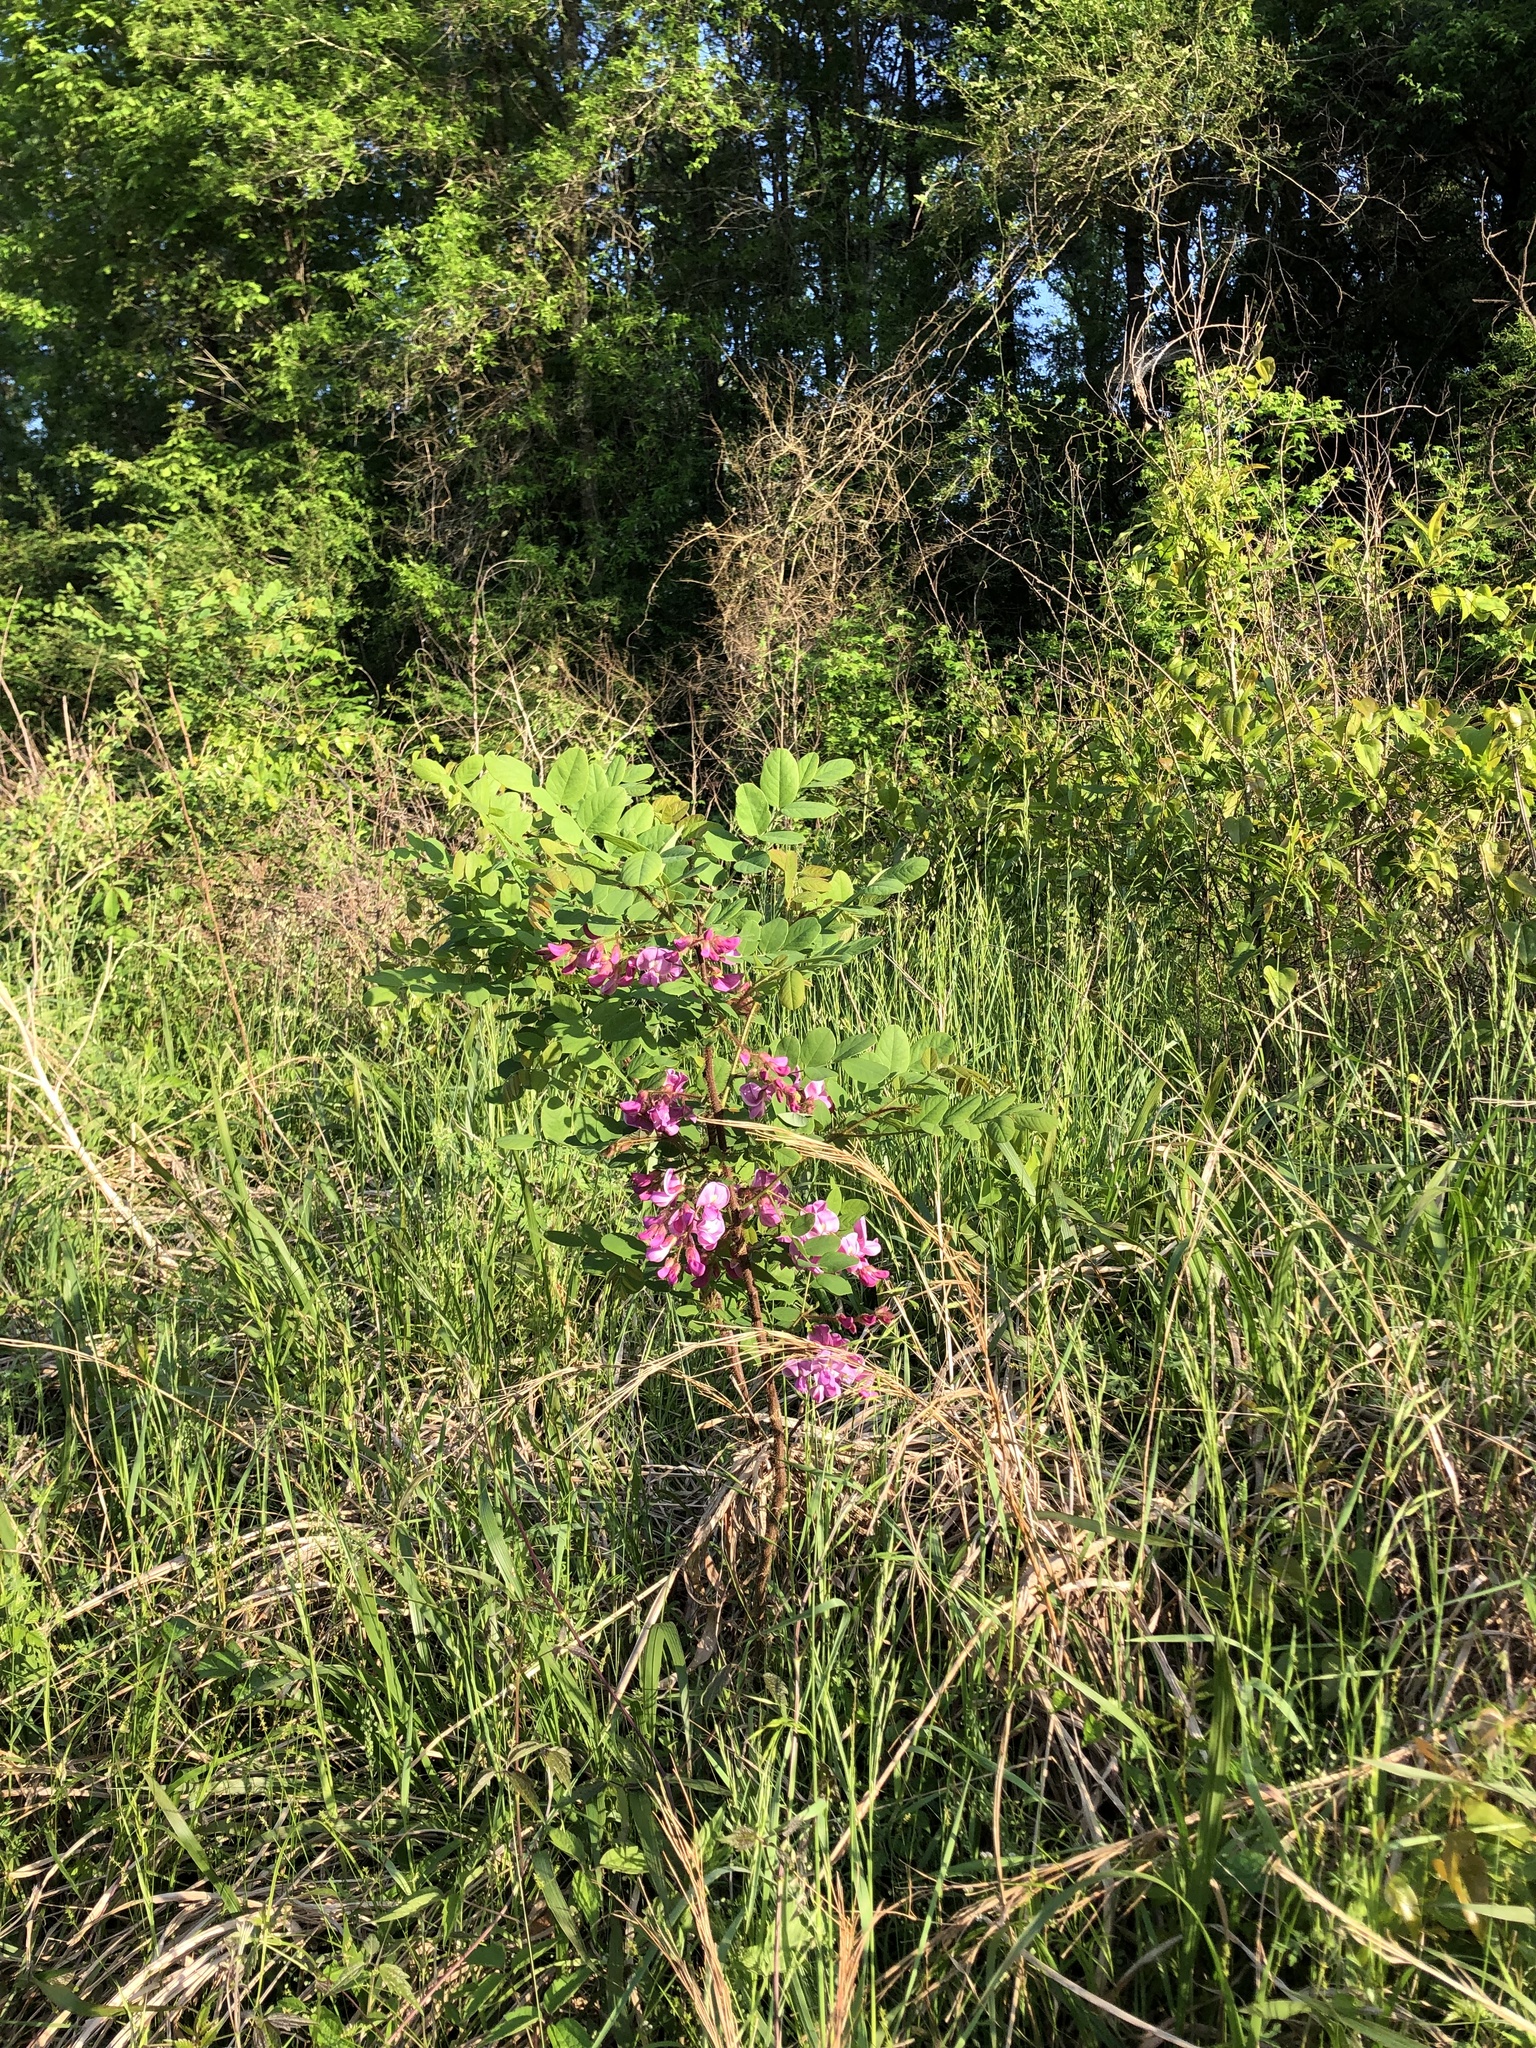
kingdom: Plantae
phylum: Tracheophyta
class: Magnoliopsida
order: Fabales
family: Fabaceae
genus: Robinia
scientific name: Robinia hispida
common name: Bristly locust
